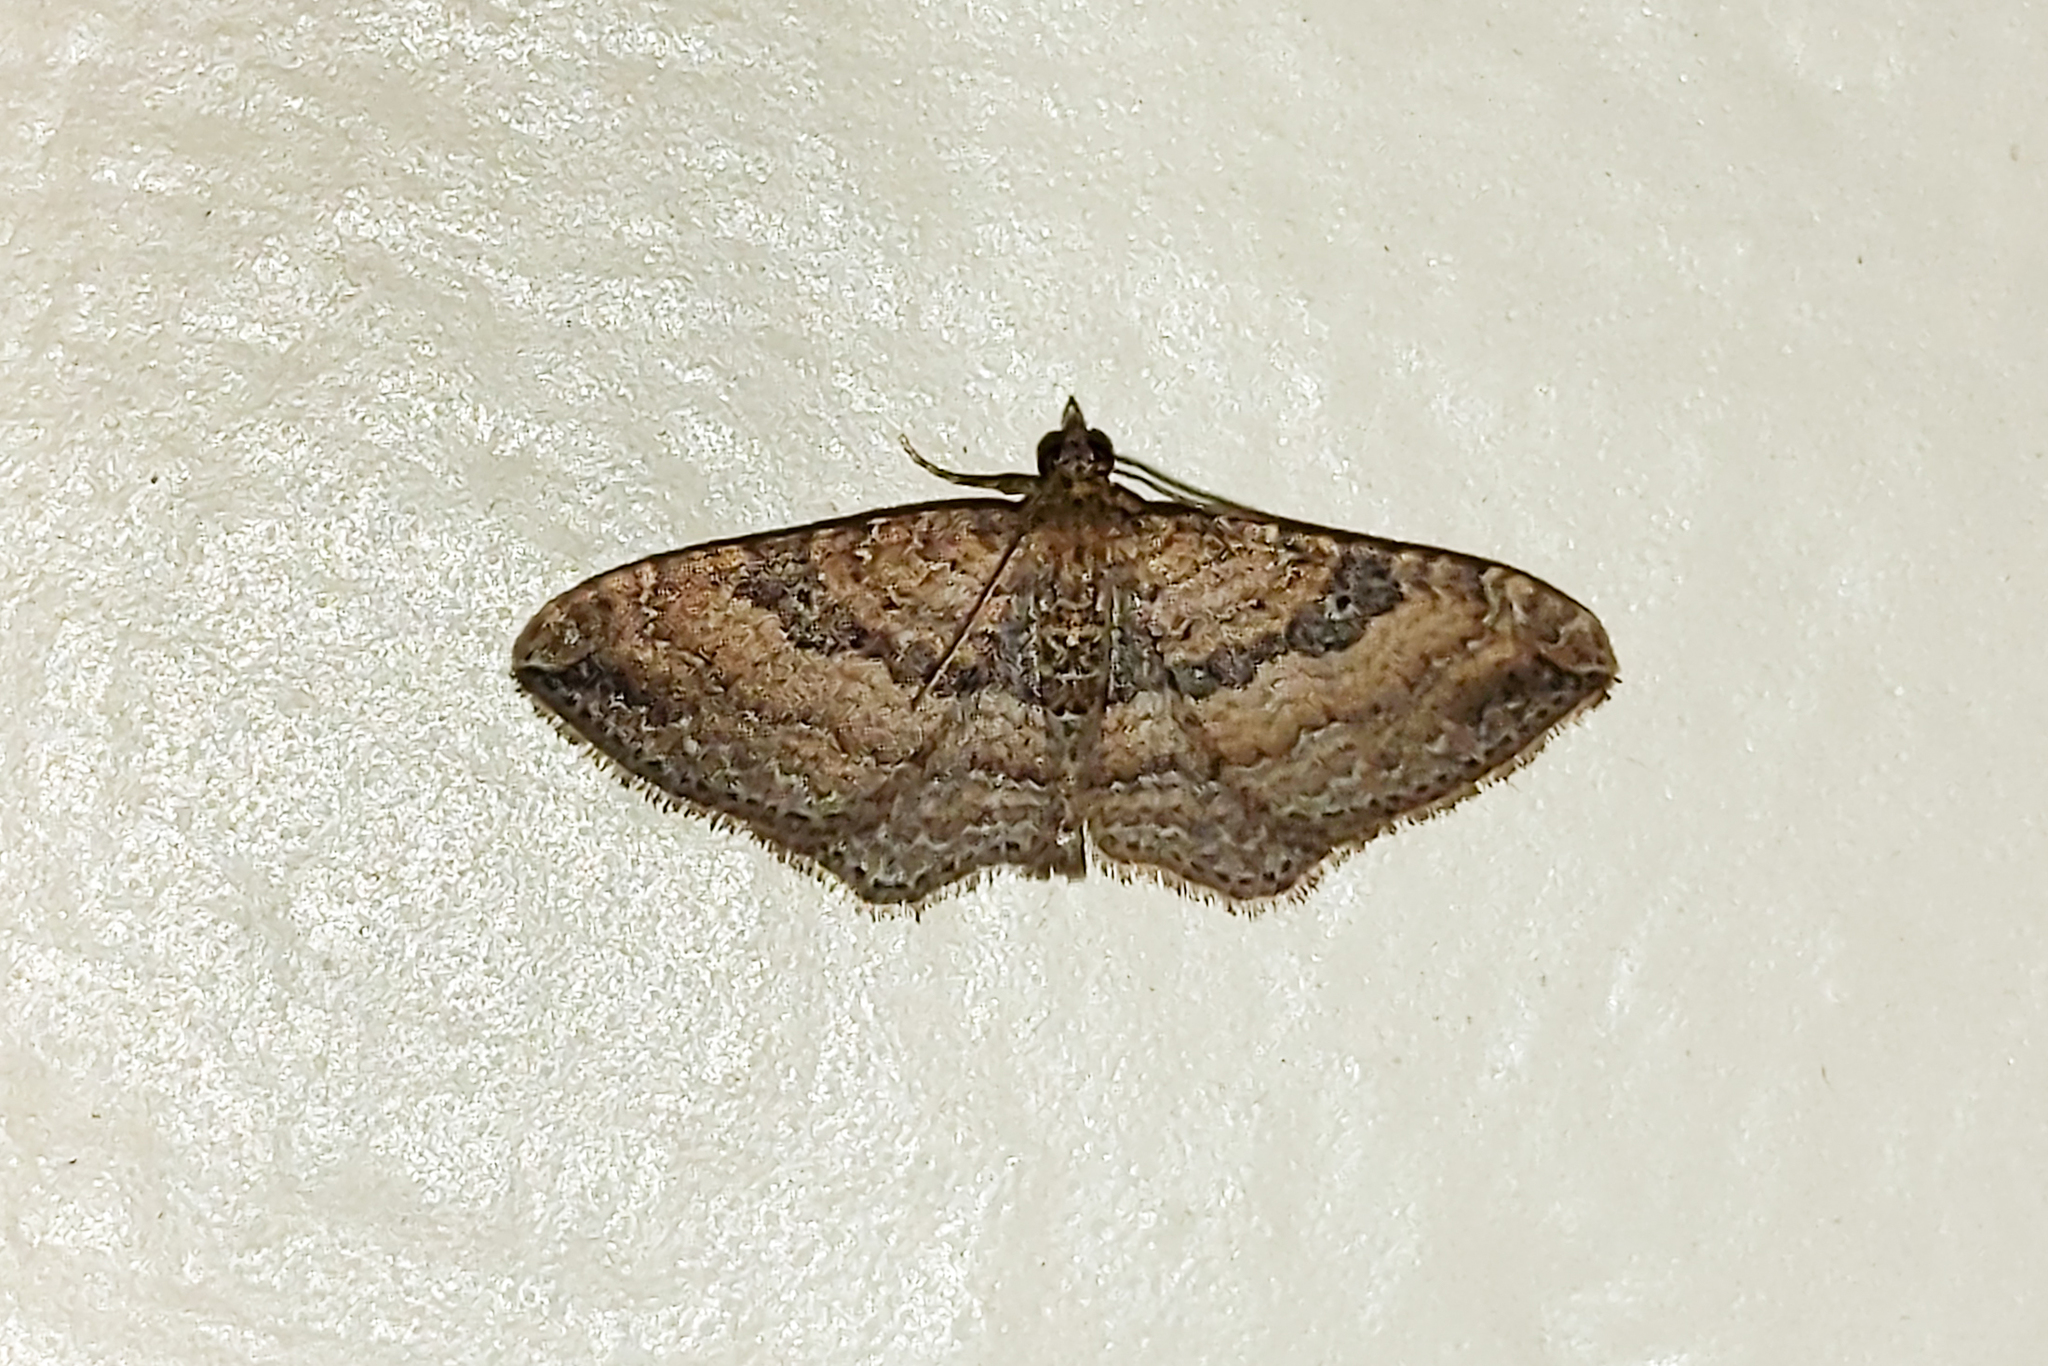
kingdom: Animalia
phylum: Arthropoda
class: Insecta
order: Lepidoptera
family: Geometridae
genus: Orthonama
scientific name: Orthonama obstipata
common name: The gem
